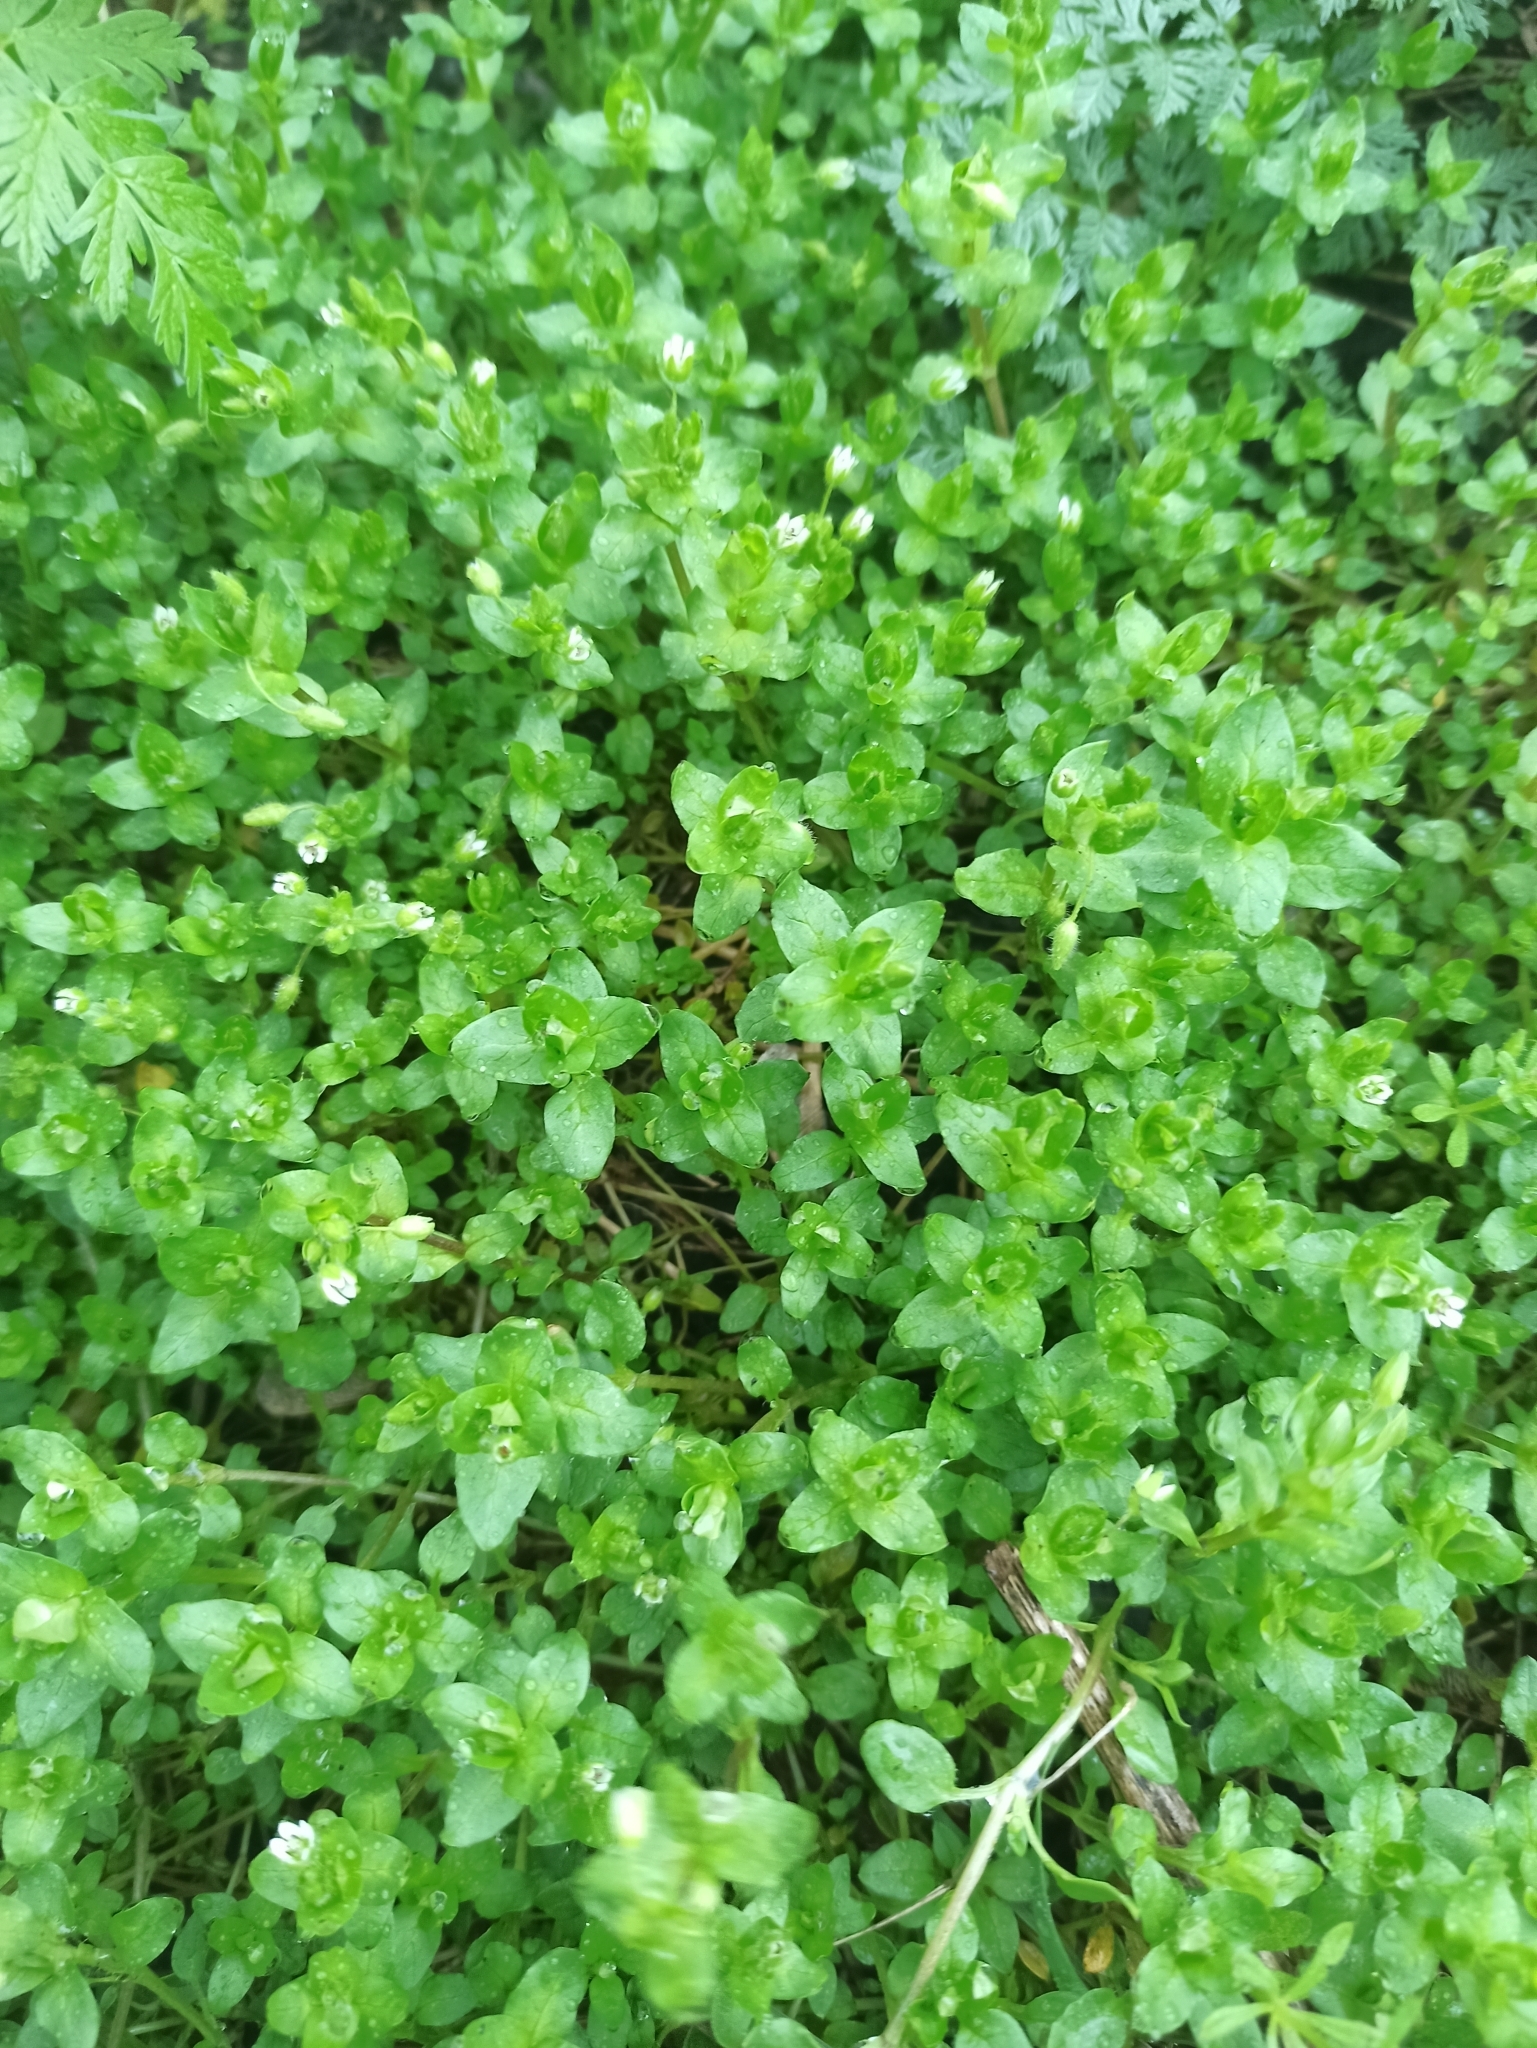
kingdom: Plantae
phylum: Tracheophyta
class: Magnoliopsida
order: Caryophyllales
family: Caryophyllaceae
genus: Stellaria
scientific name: Stellaria media
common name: Common chickweed
